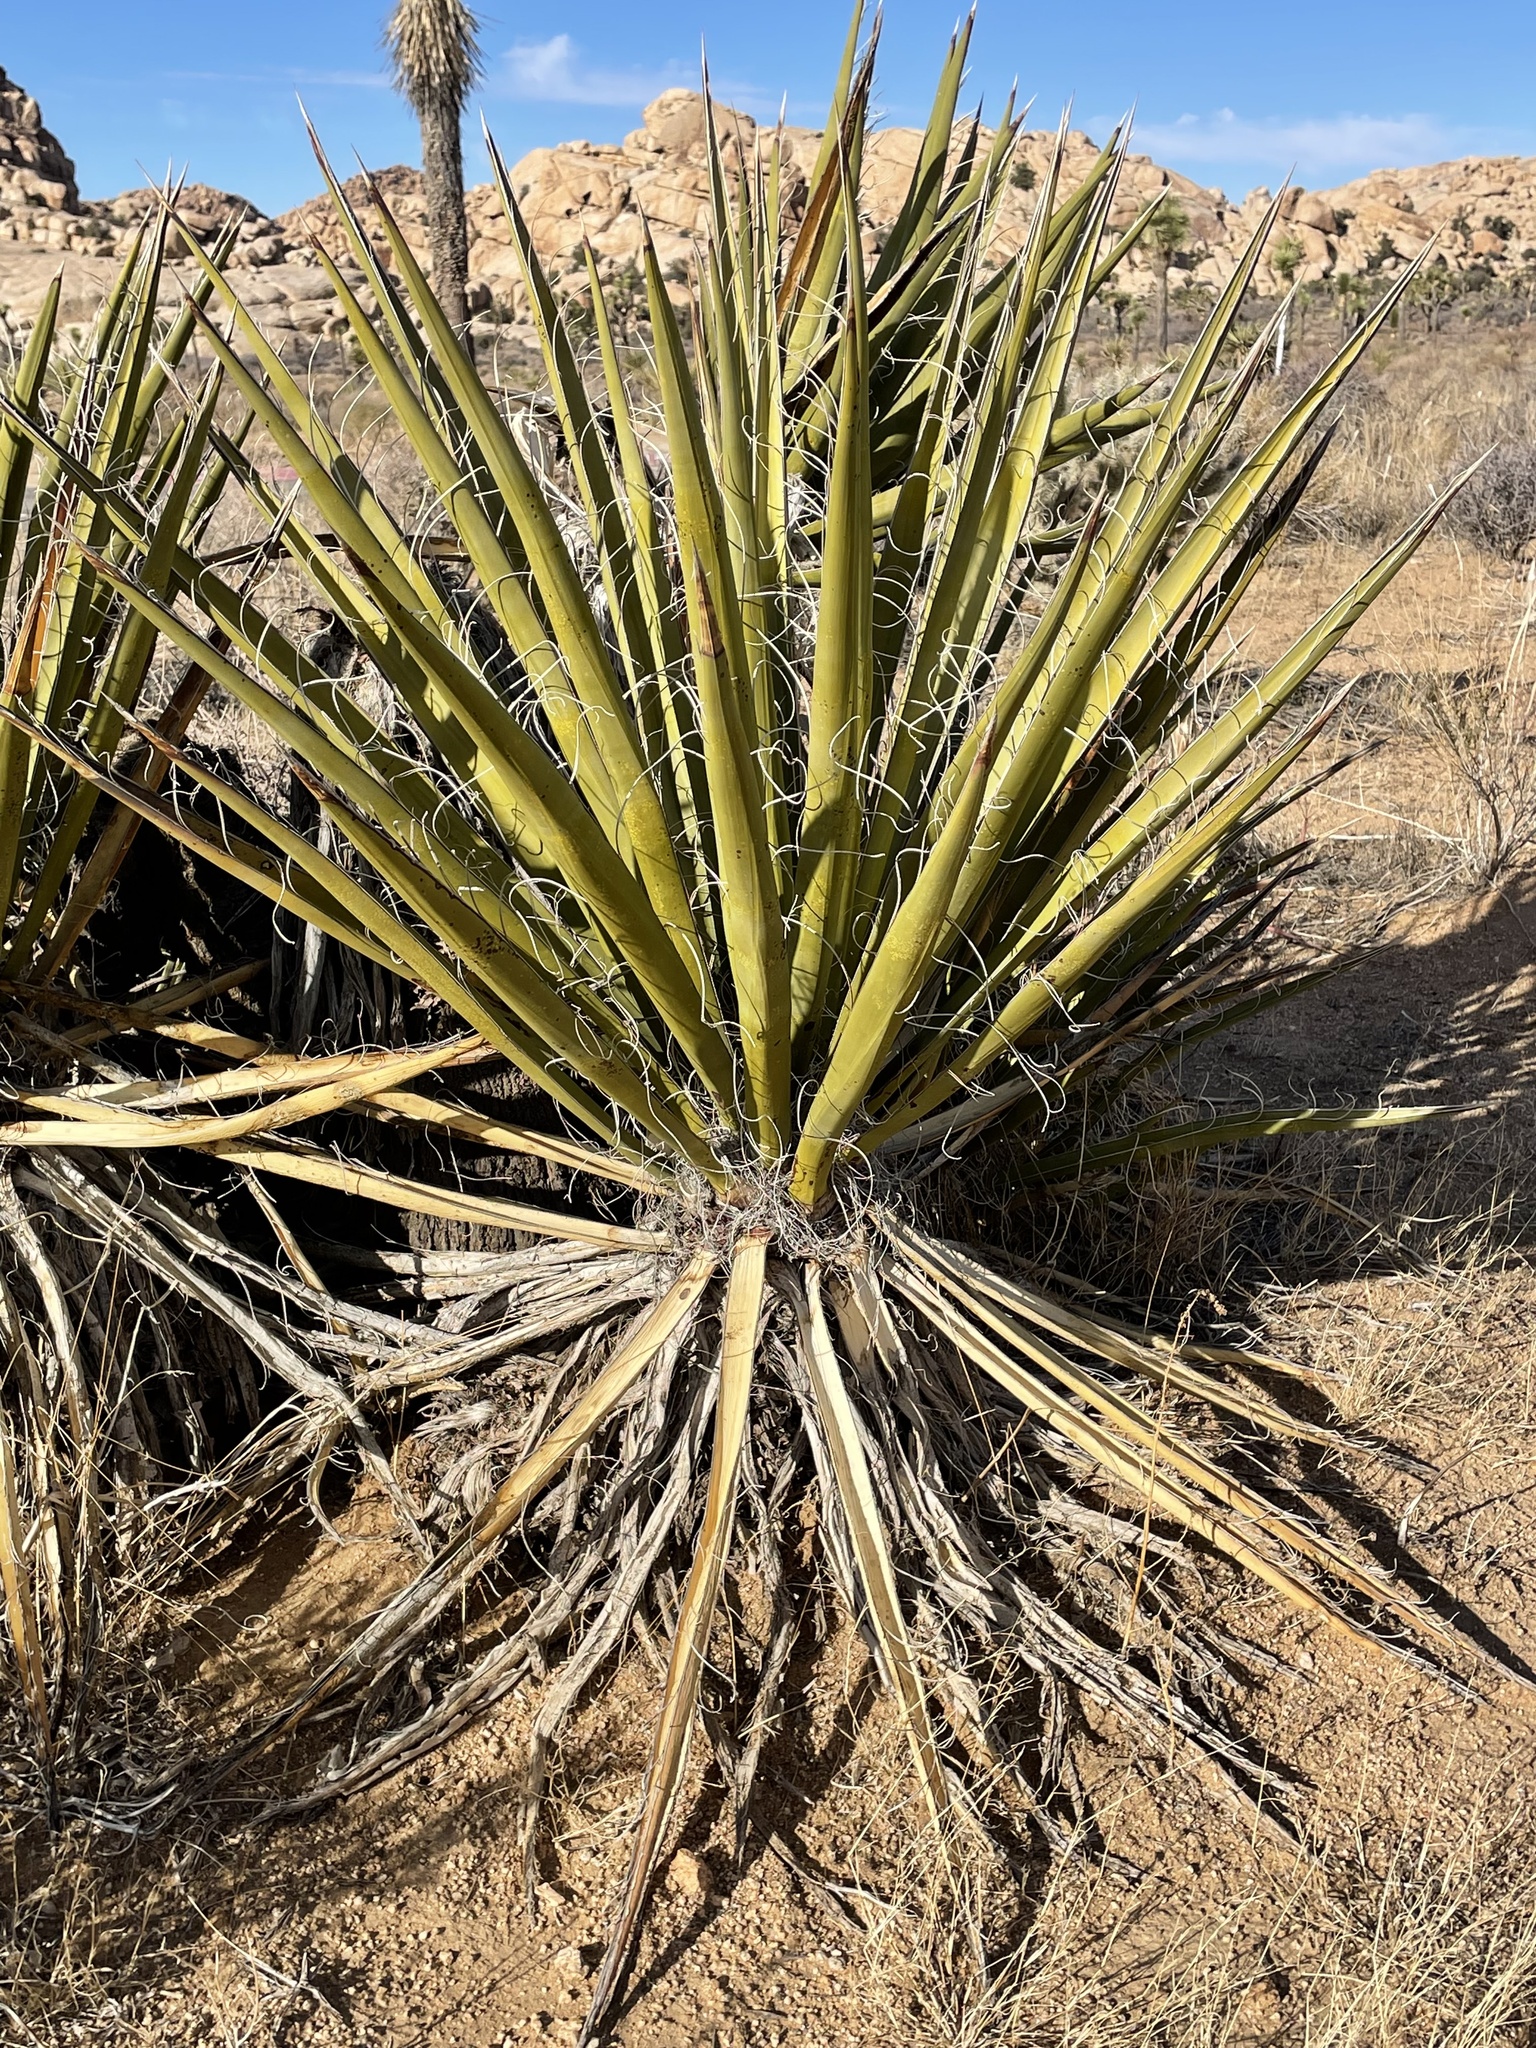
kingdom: Plantae
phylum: Tracheophyta
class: Liliopsida
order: Asparagales
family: Asparagaceae
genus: Yucca
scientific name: Yucca schidigera
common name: Mojave yucca
